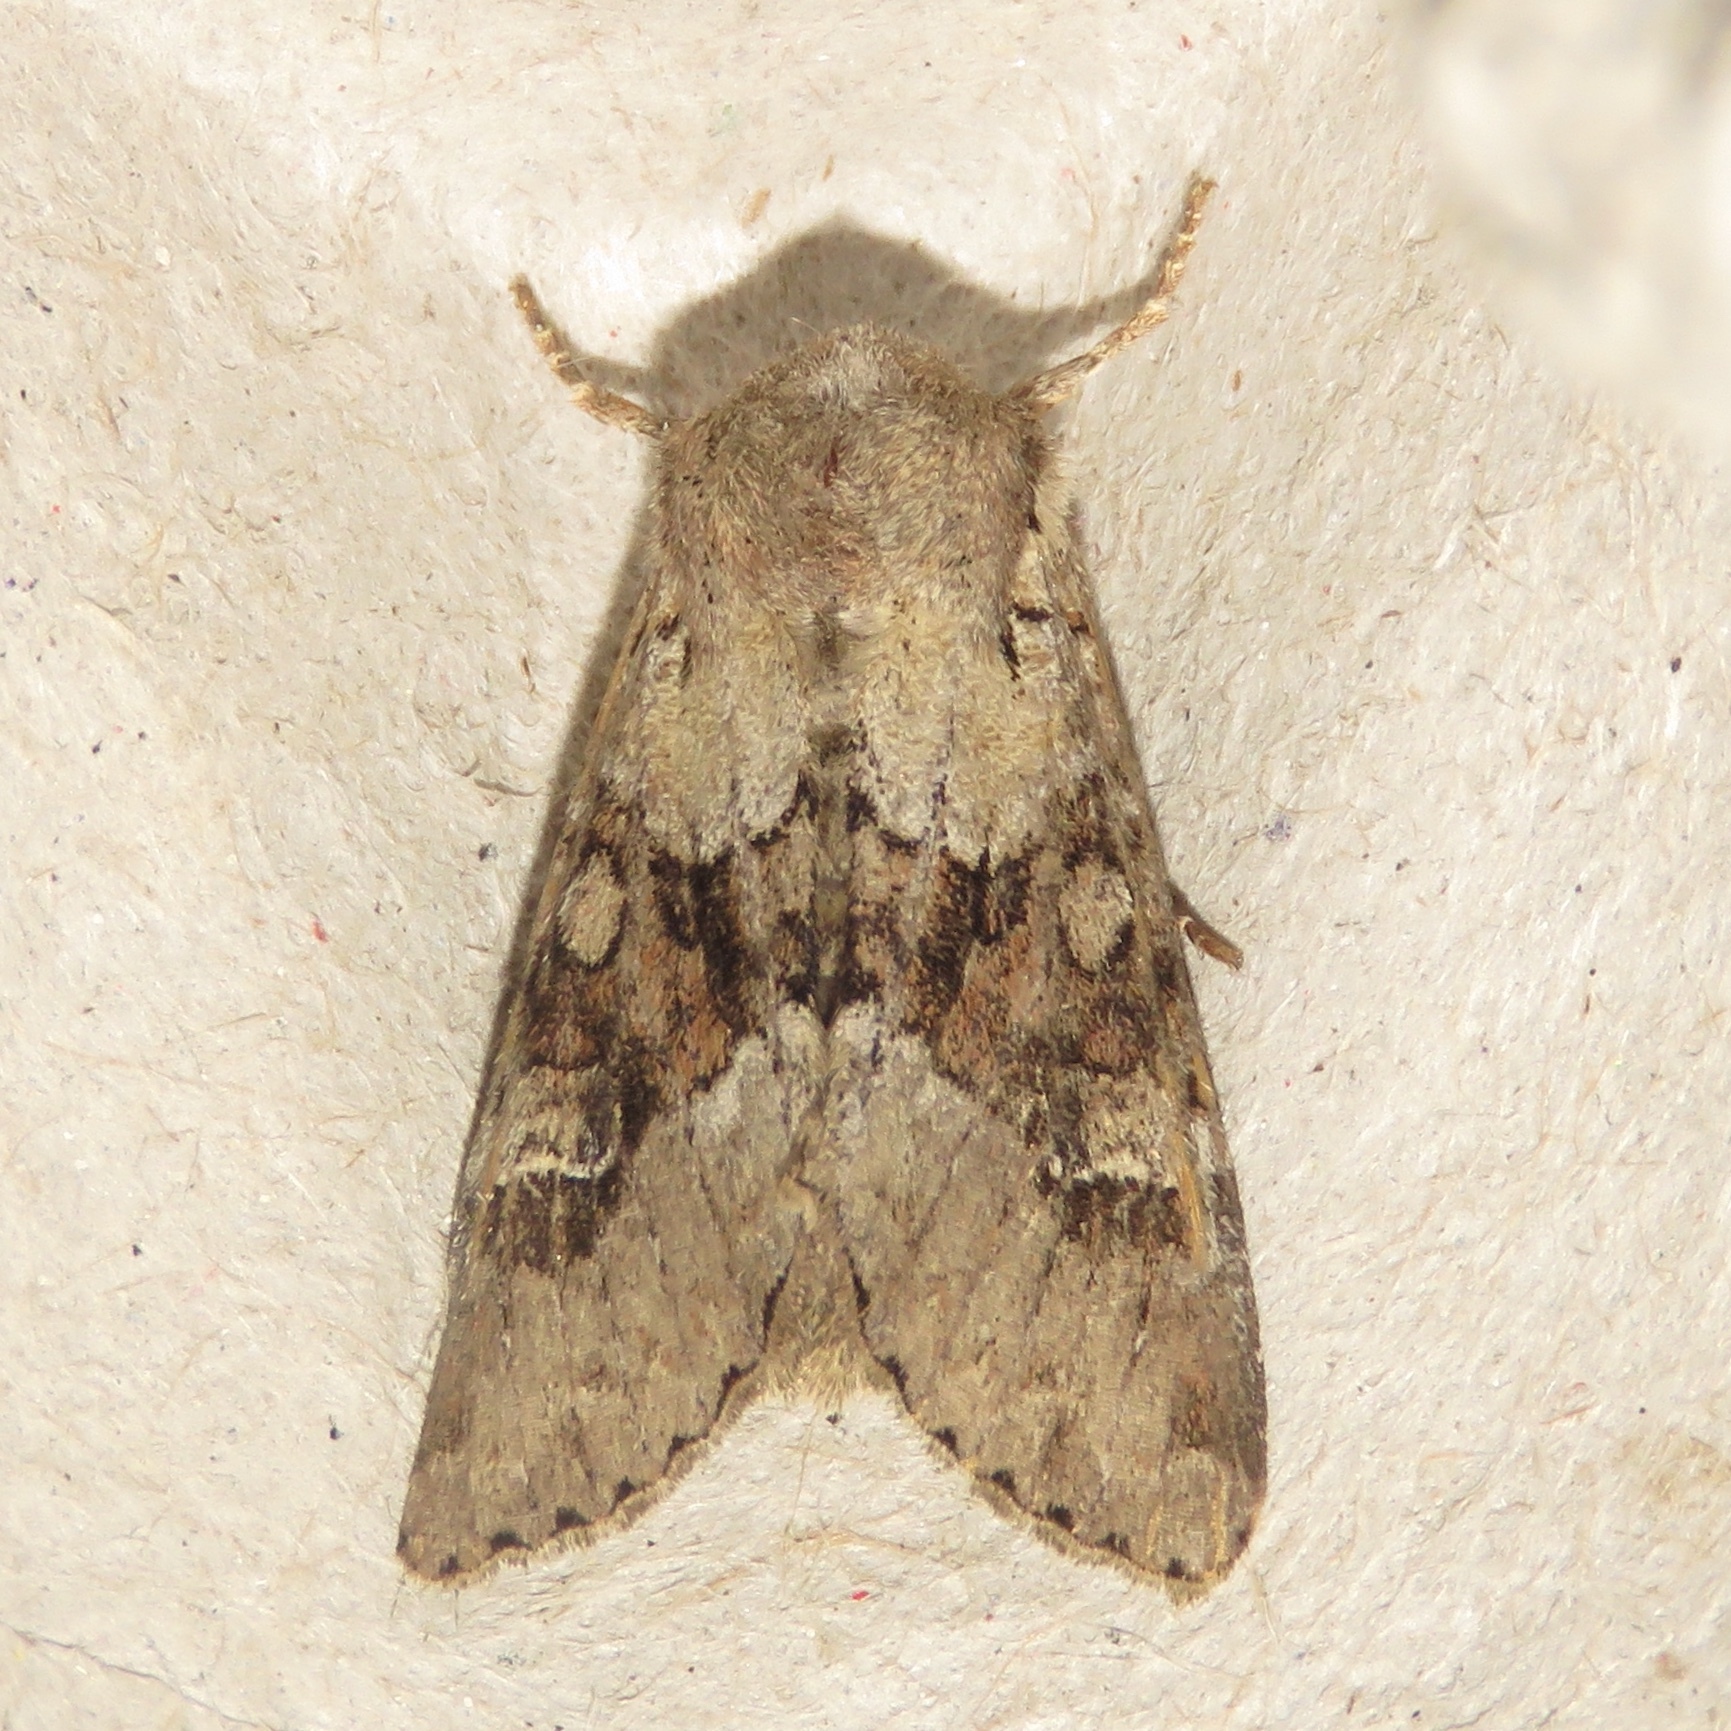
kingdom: Animalia
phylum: Arthropoda
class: Insecta
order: Lepidoptera
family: Noctuidae
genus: Apamea
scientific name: Apamea sordens
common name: Rustic shoulder-knot
